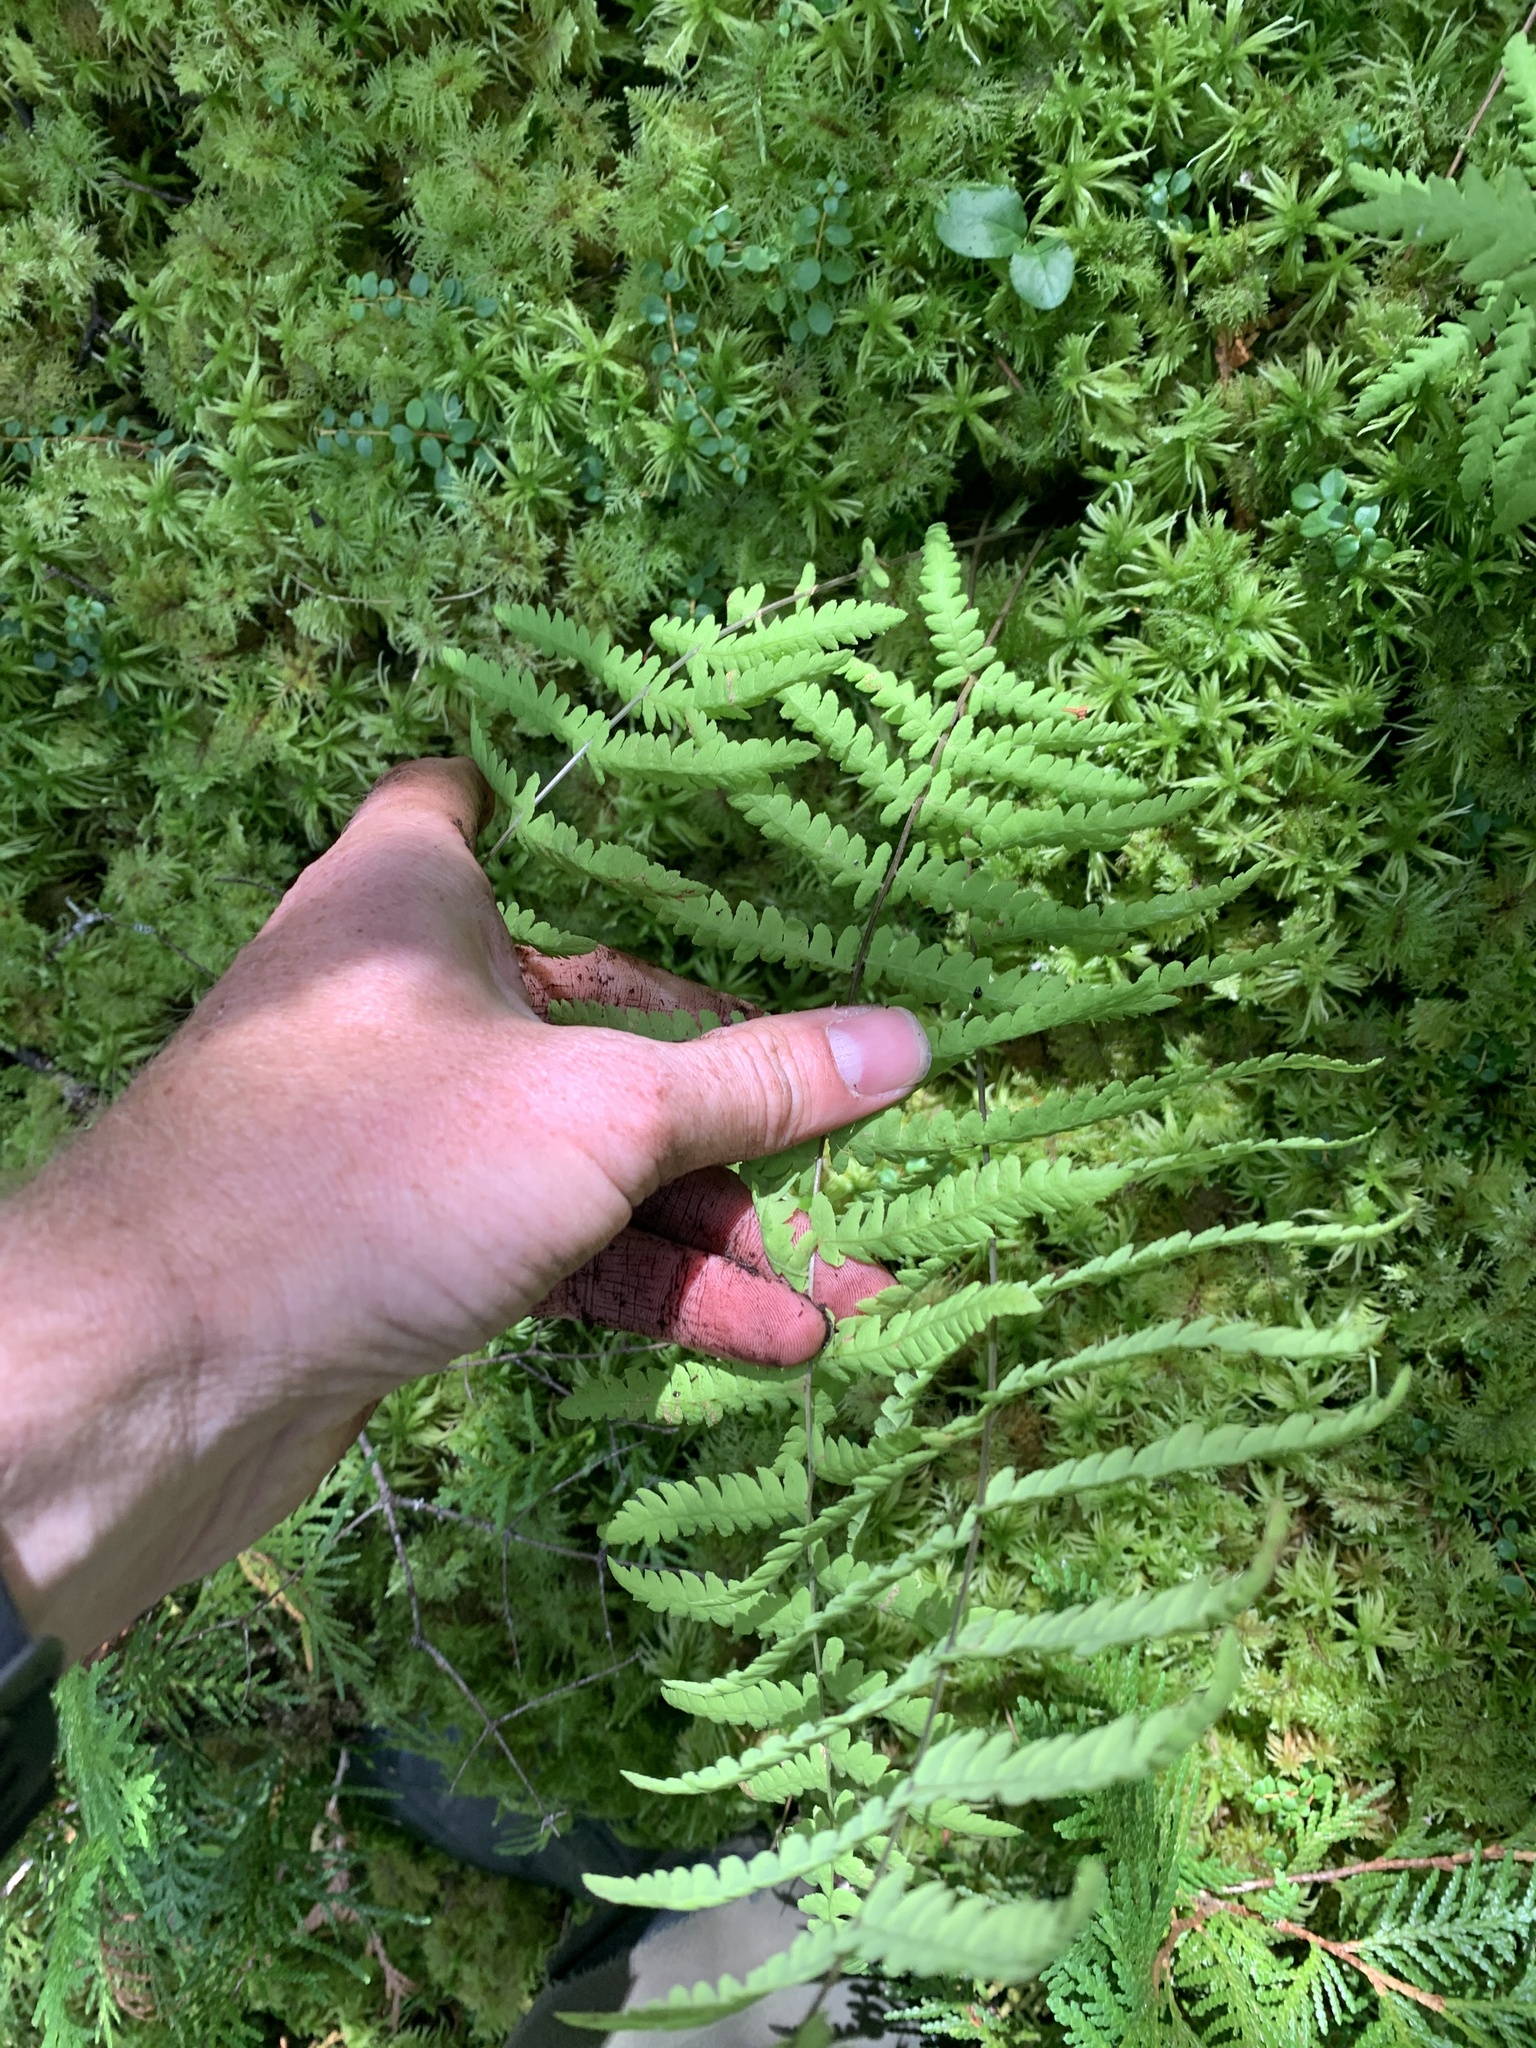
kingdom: Plantae
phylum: Tracheophyta
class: Polypodiopsida
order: Polypodiales
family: Thelypteridaceae
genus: Thelypteris
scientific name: Thelypteris palustris
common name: Marsh fern
